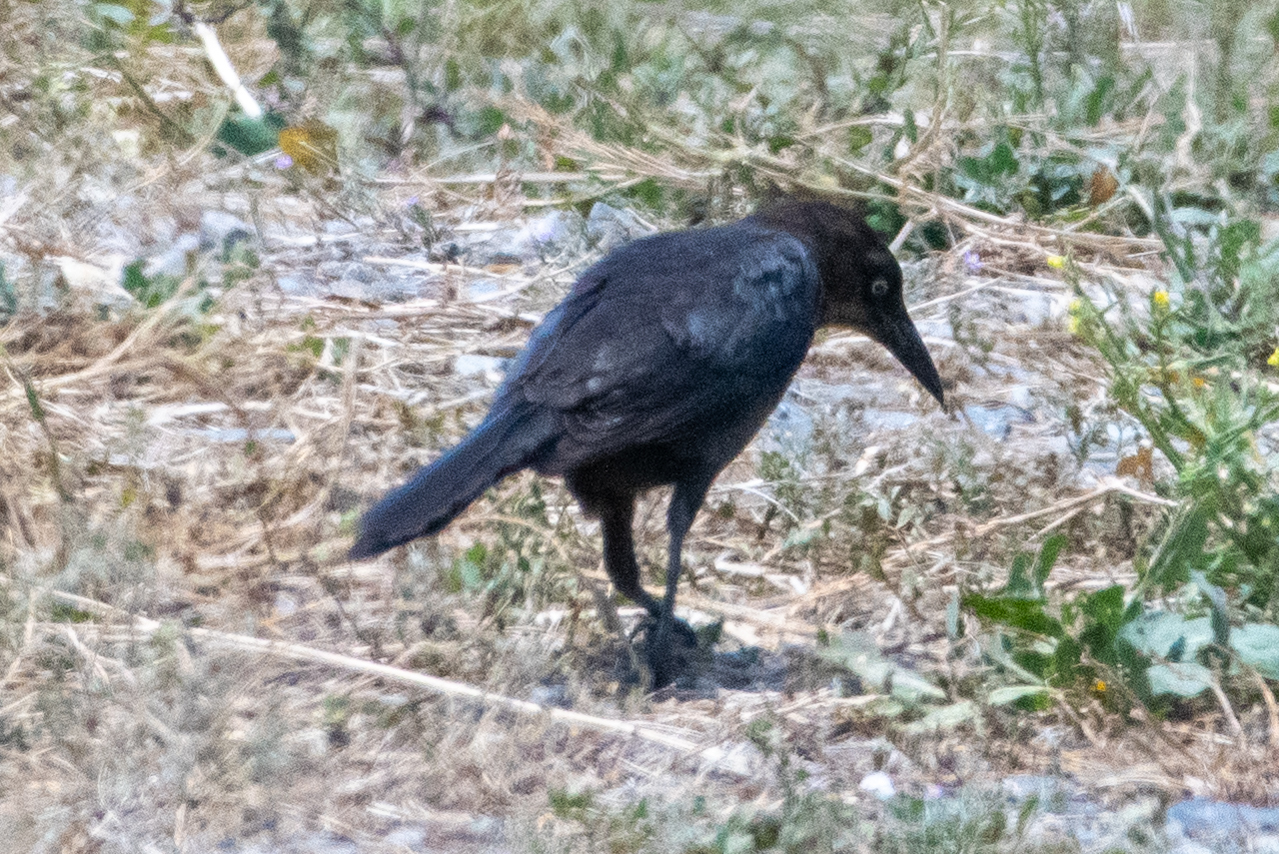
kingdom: Animalia
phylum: Chordata
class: Aves
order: Passeriformes
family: Icteridae
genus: Quiscalus
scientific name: Quiscalus mexicanus
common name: Great-tailed grackle
